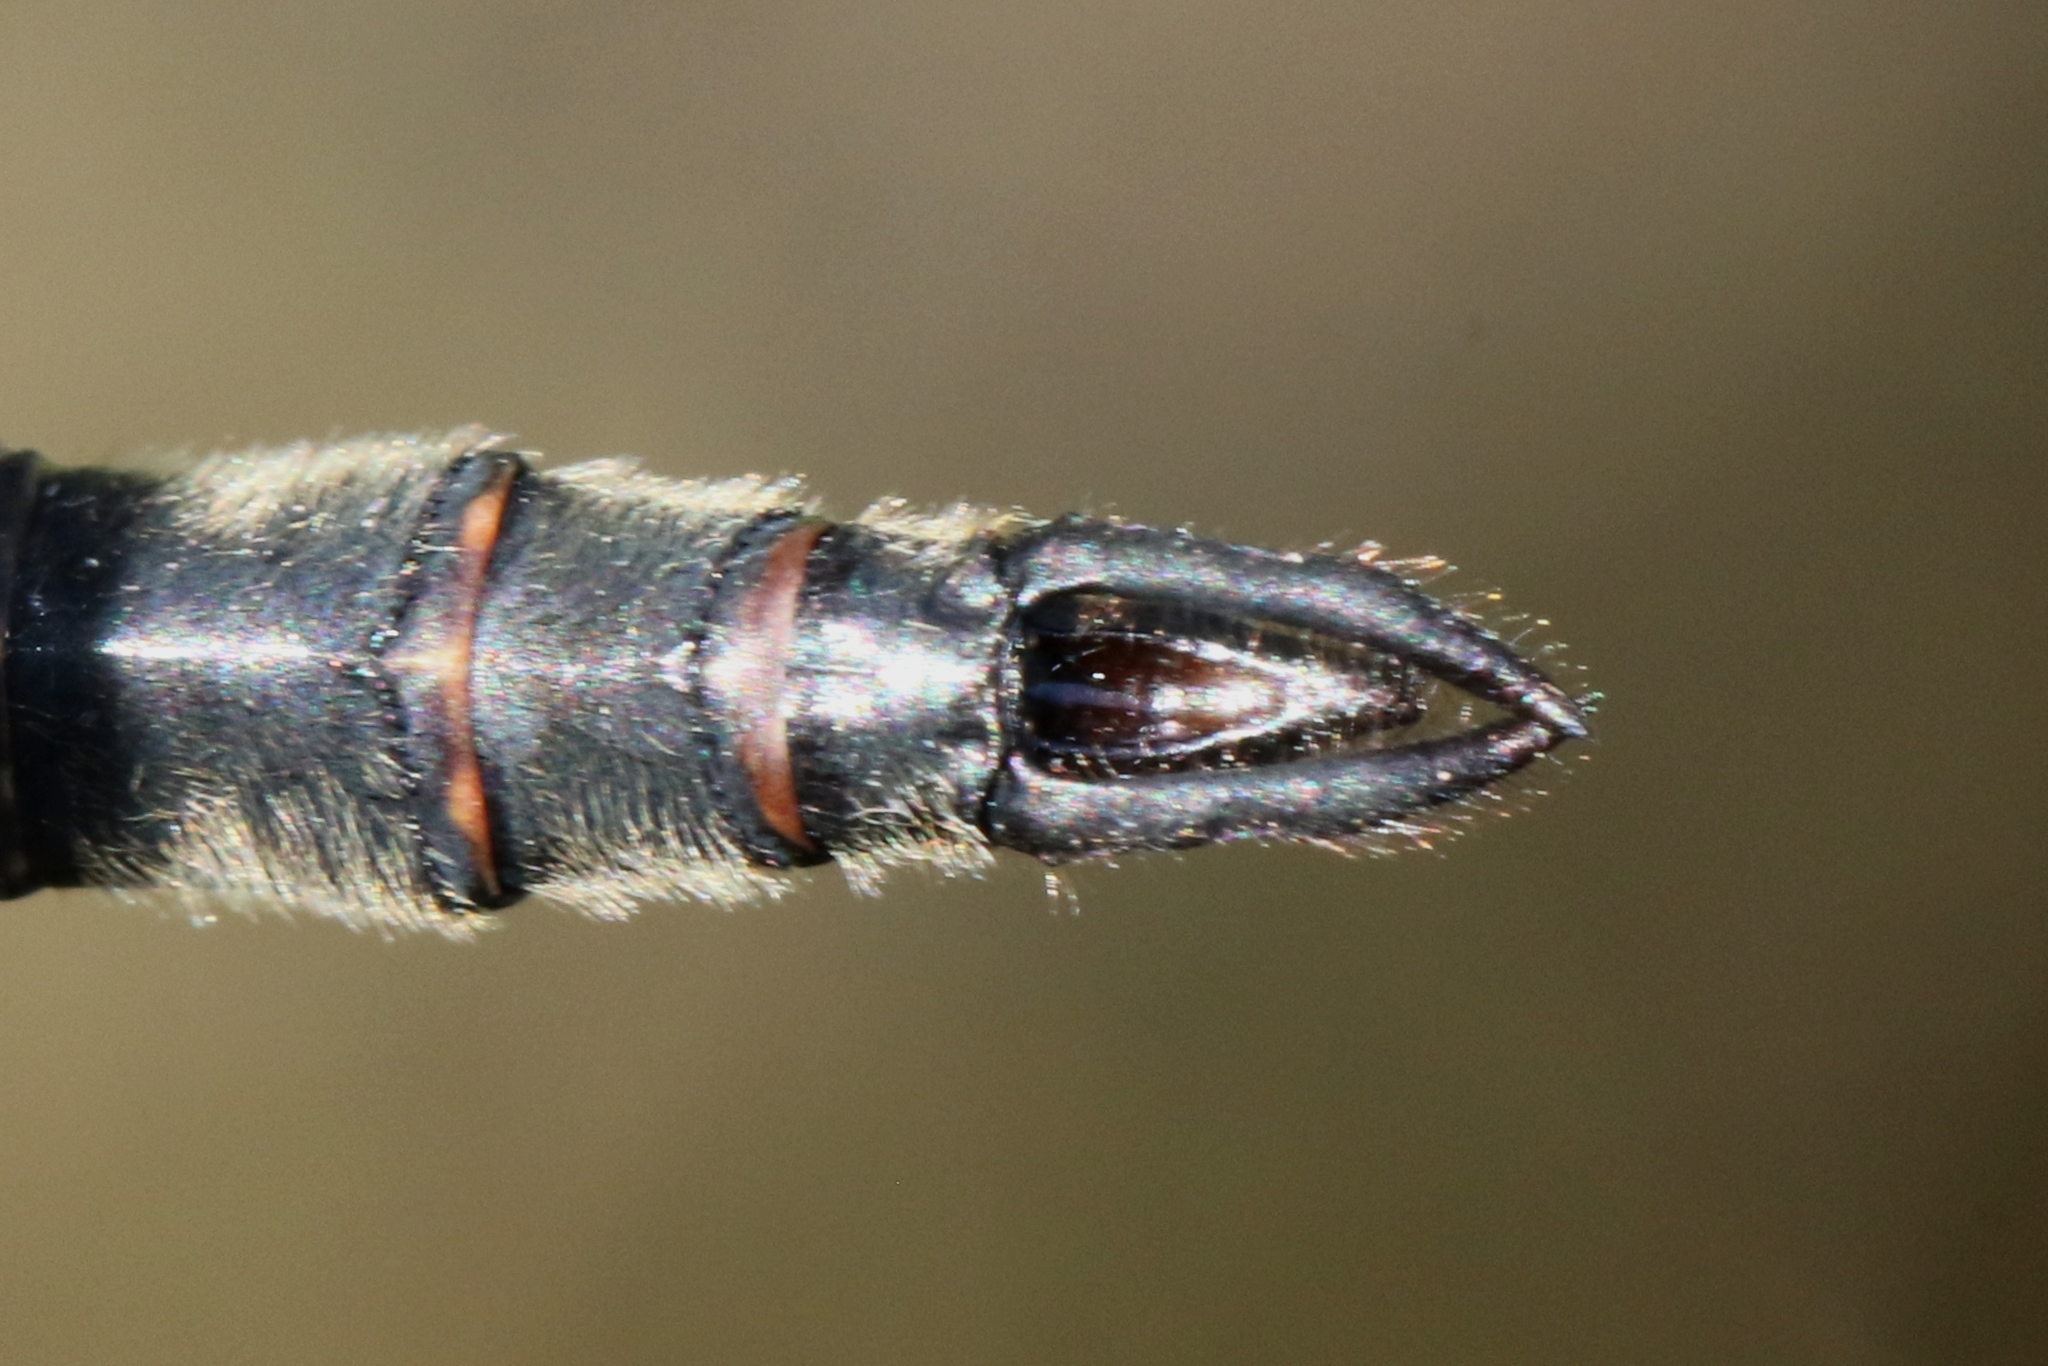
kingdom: Animalia
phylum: Arthropoda
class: Insecta
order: Odonata
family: Corduliidae
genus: Somatochlora
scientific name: Somatochlora minor
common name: Ocellated emerald
